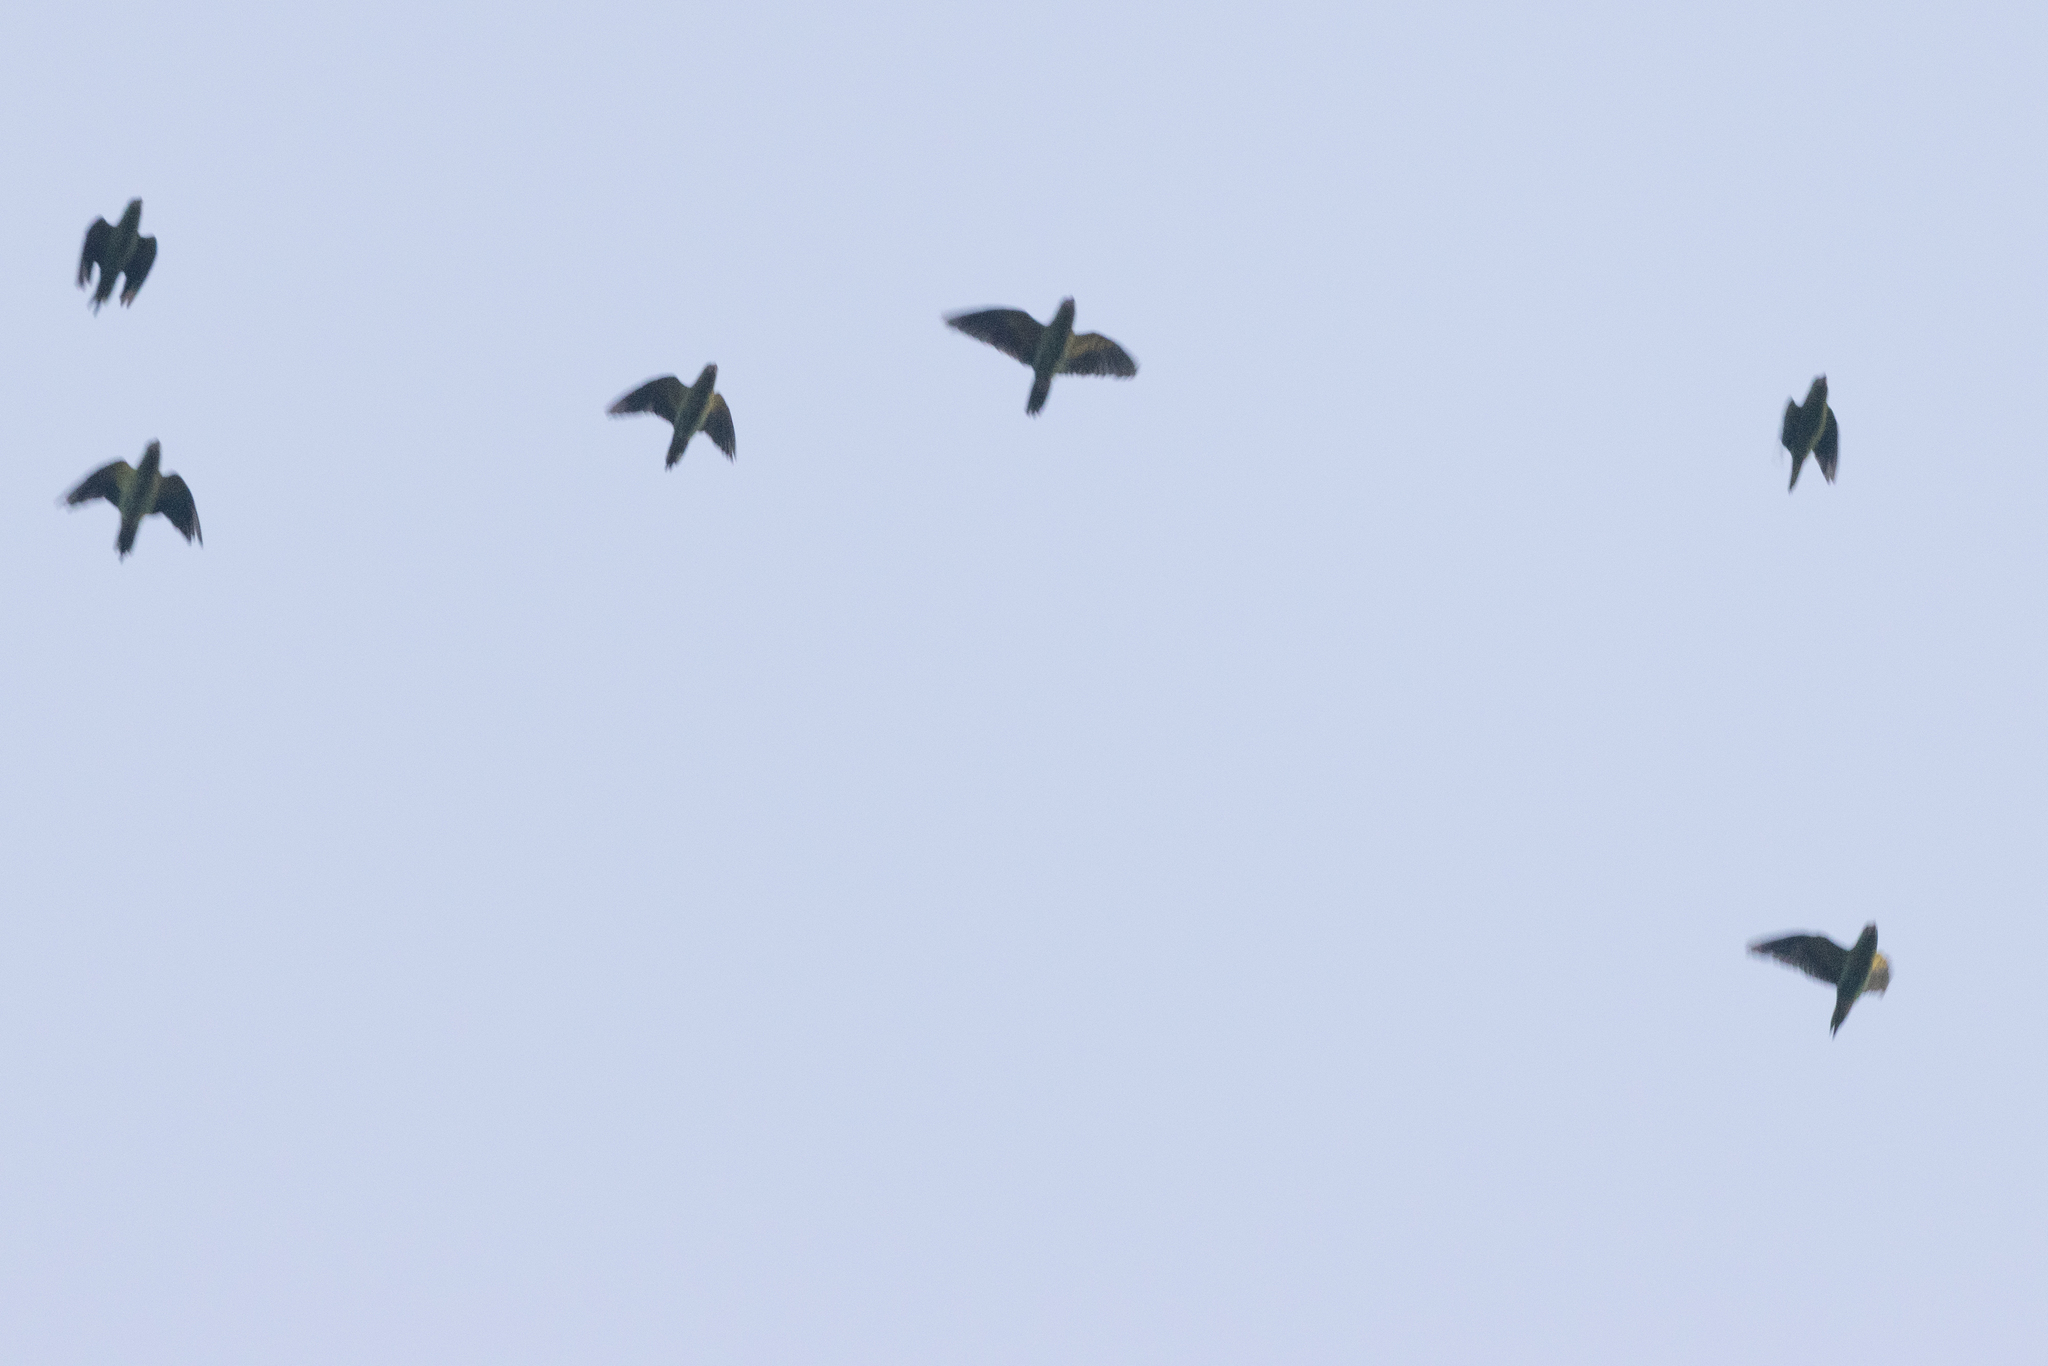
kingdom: Animalia
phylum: Chordata
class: Aves
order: Psittaciformes
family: Psittacidae
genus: Brotogeris
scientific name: Brotogeris jugularis
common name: Orange-chinned parakeet
